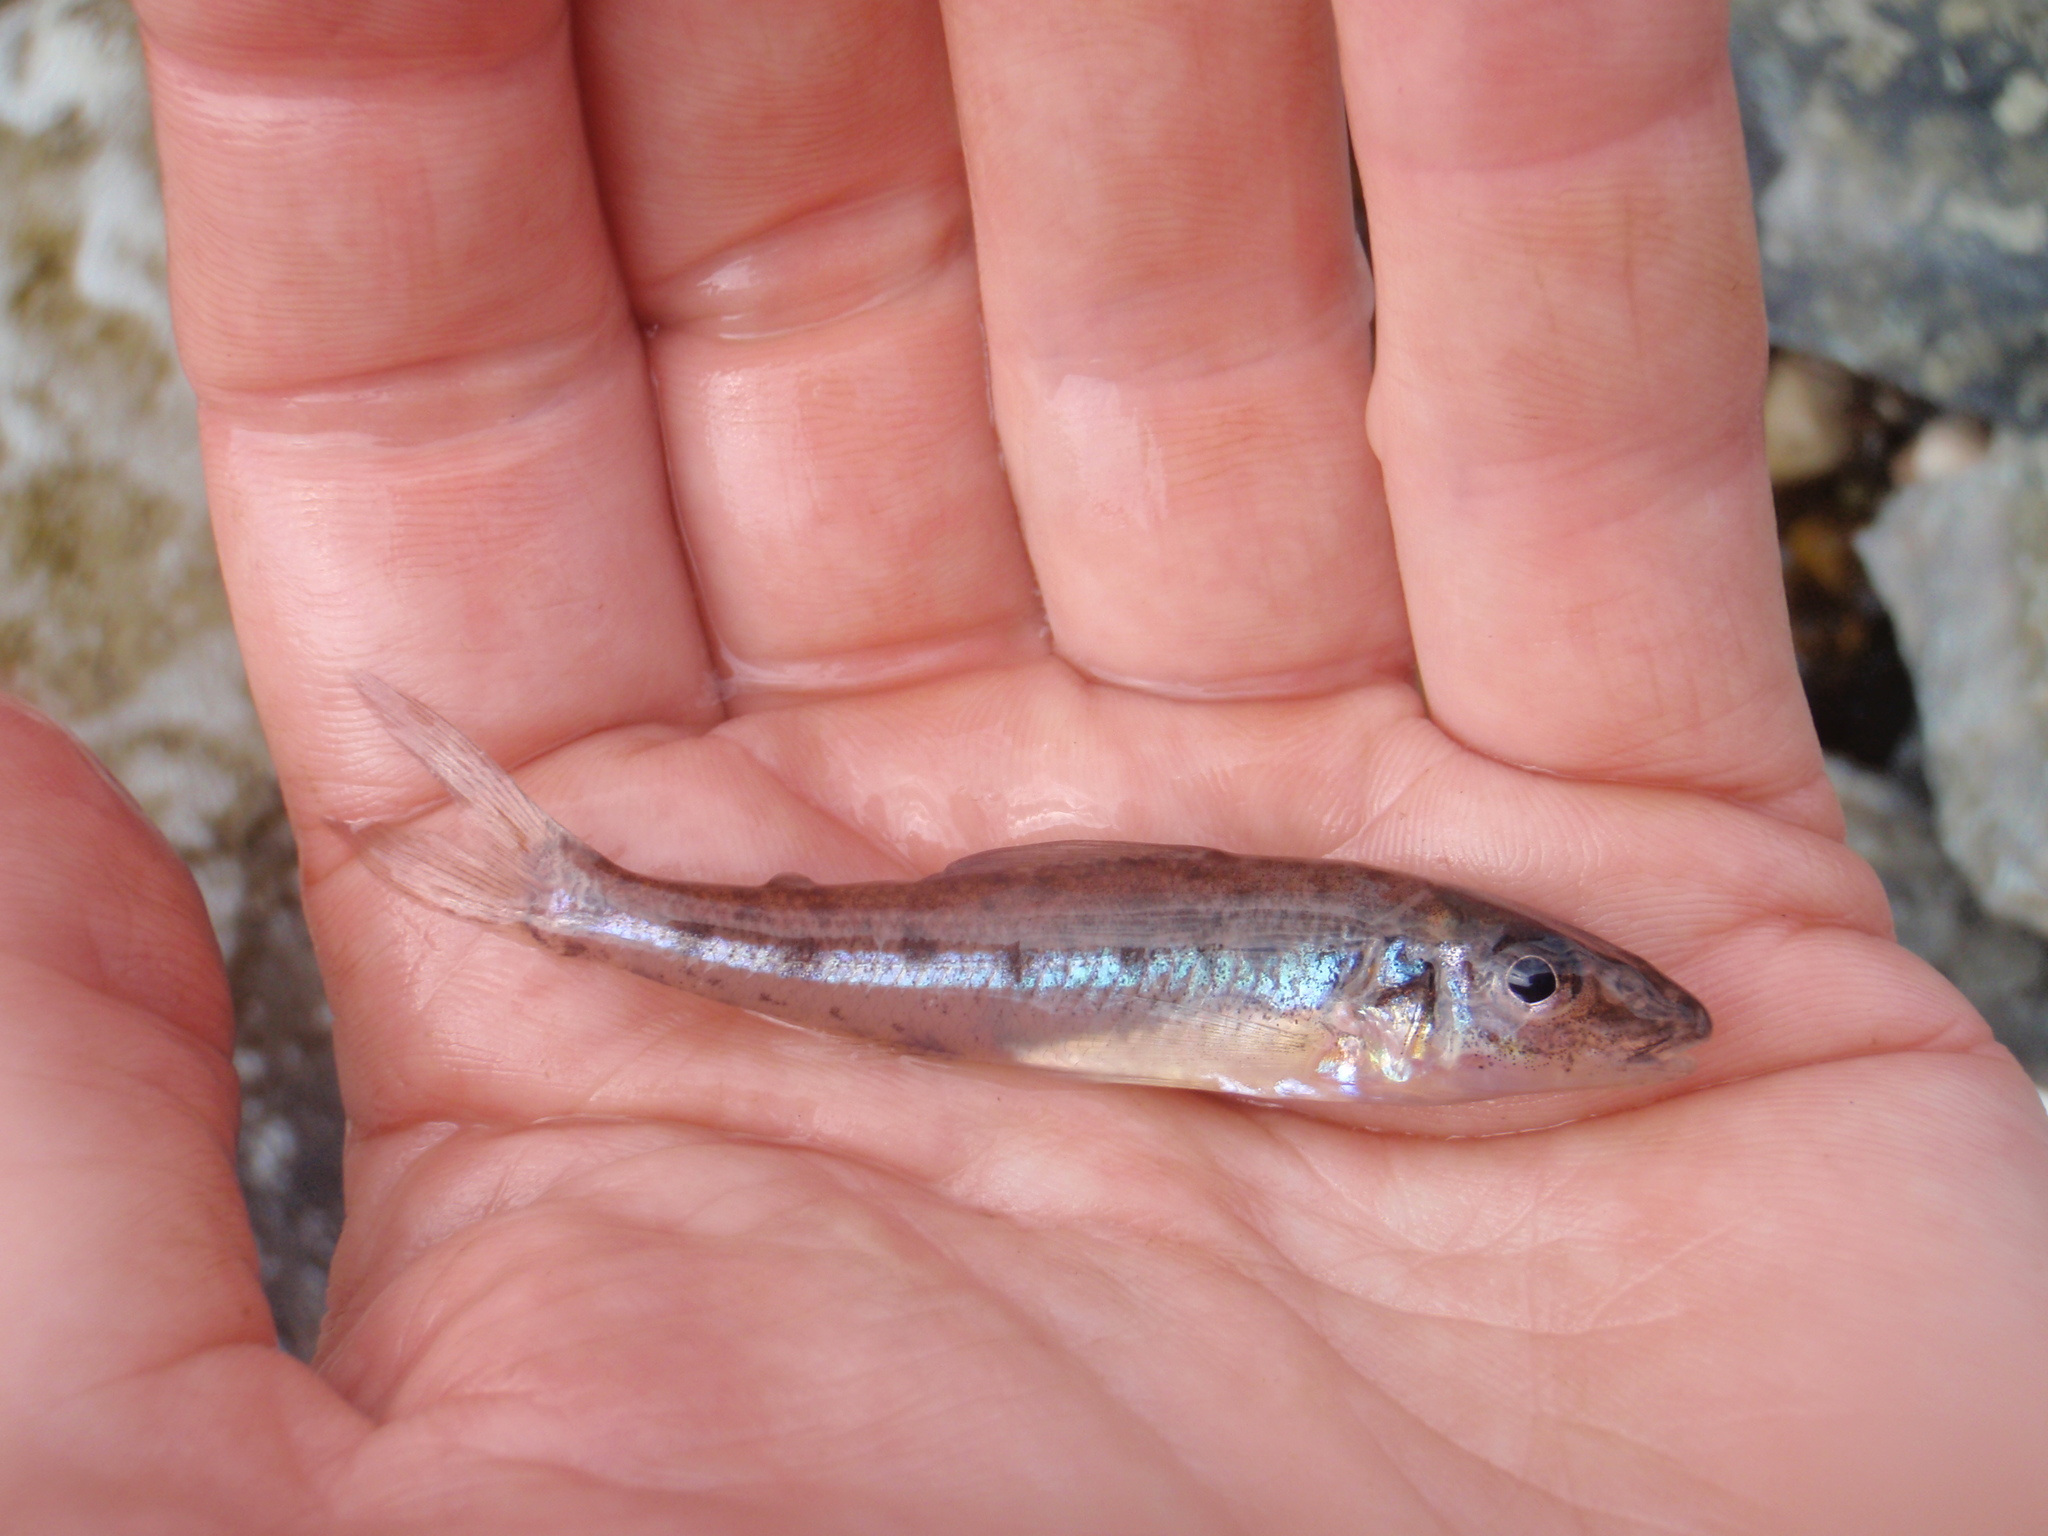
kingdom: Animalia
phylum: Chordata
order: Percopsiformes
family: Percopsidae
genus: Percopsis
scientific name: Percopsis omiscomaycus
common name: Trout-perch
